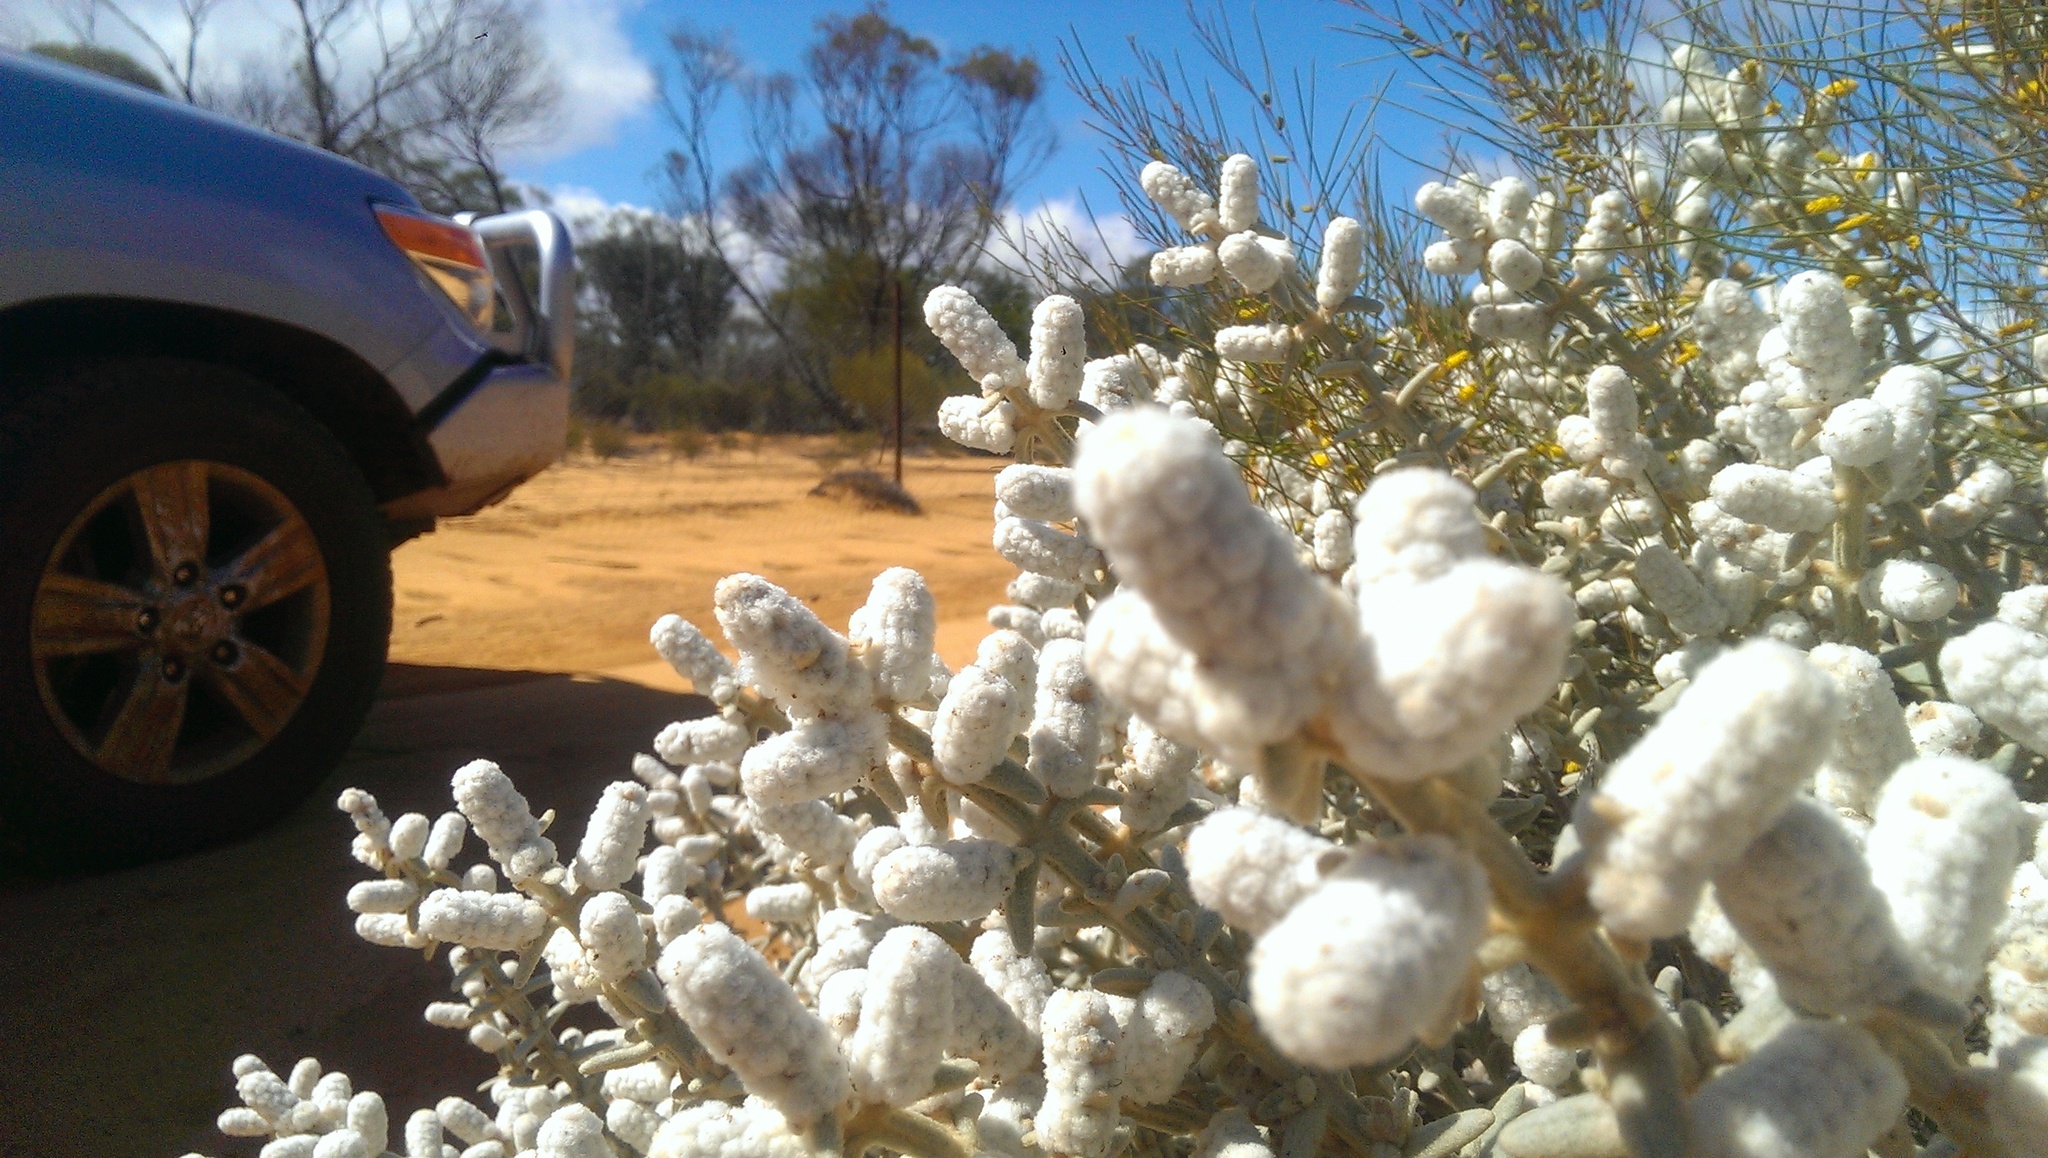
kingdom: Plantae
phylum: Tracheophyta
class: Magnoliopsida
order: Lamiales
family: Lamiaceae
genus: Lachnostachys
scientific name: Lachnostachys coolgardiensis
